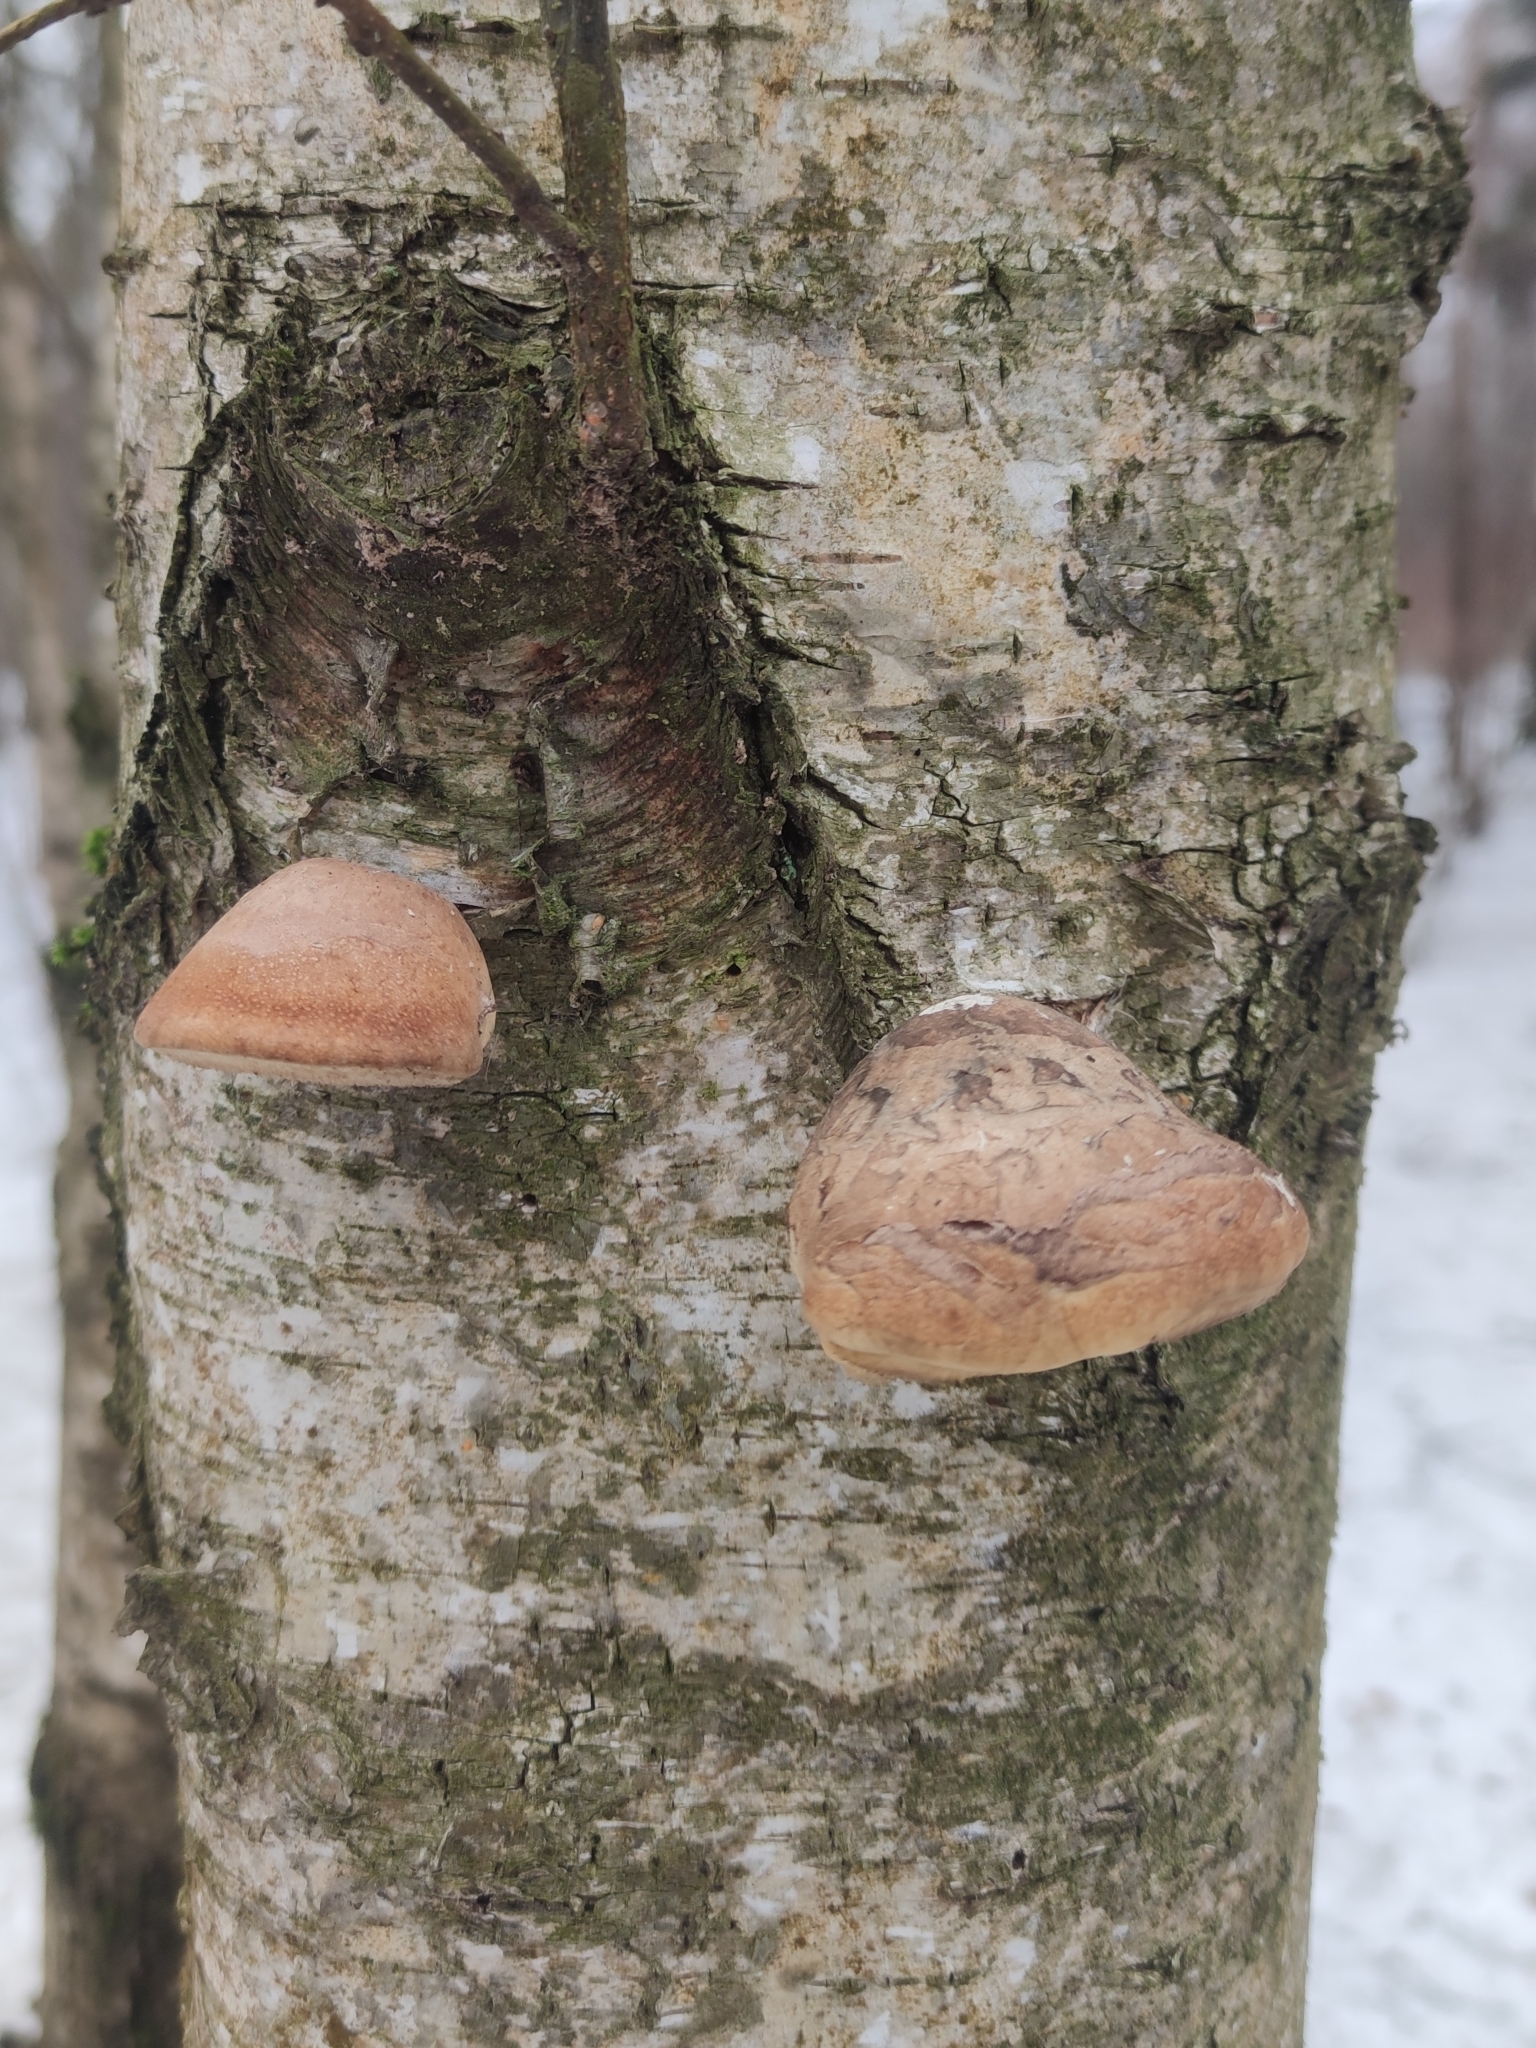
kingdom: Fungi
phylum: Basidiomycota
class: Agaricomycetes
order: Polyporales
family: Fomitopsidaceae
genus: Fomitopsis
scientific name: Fomitopsis betulina
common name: Birch polypore
